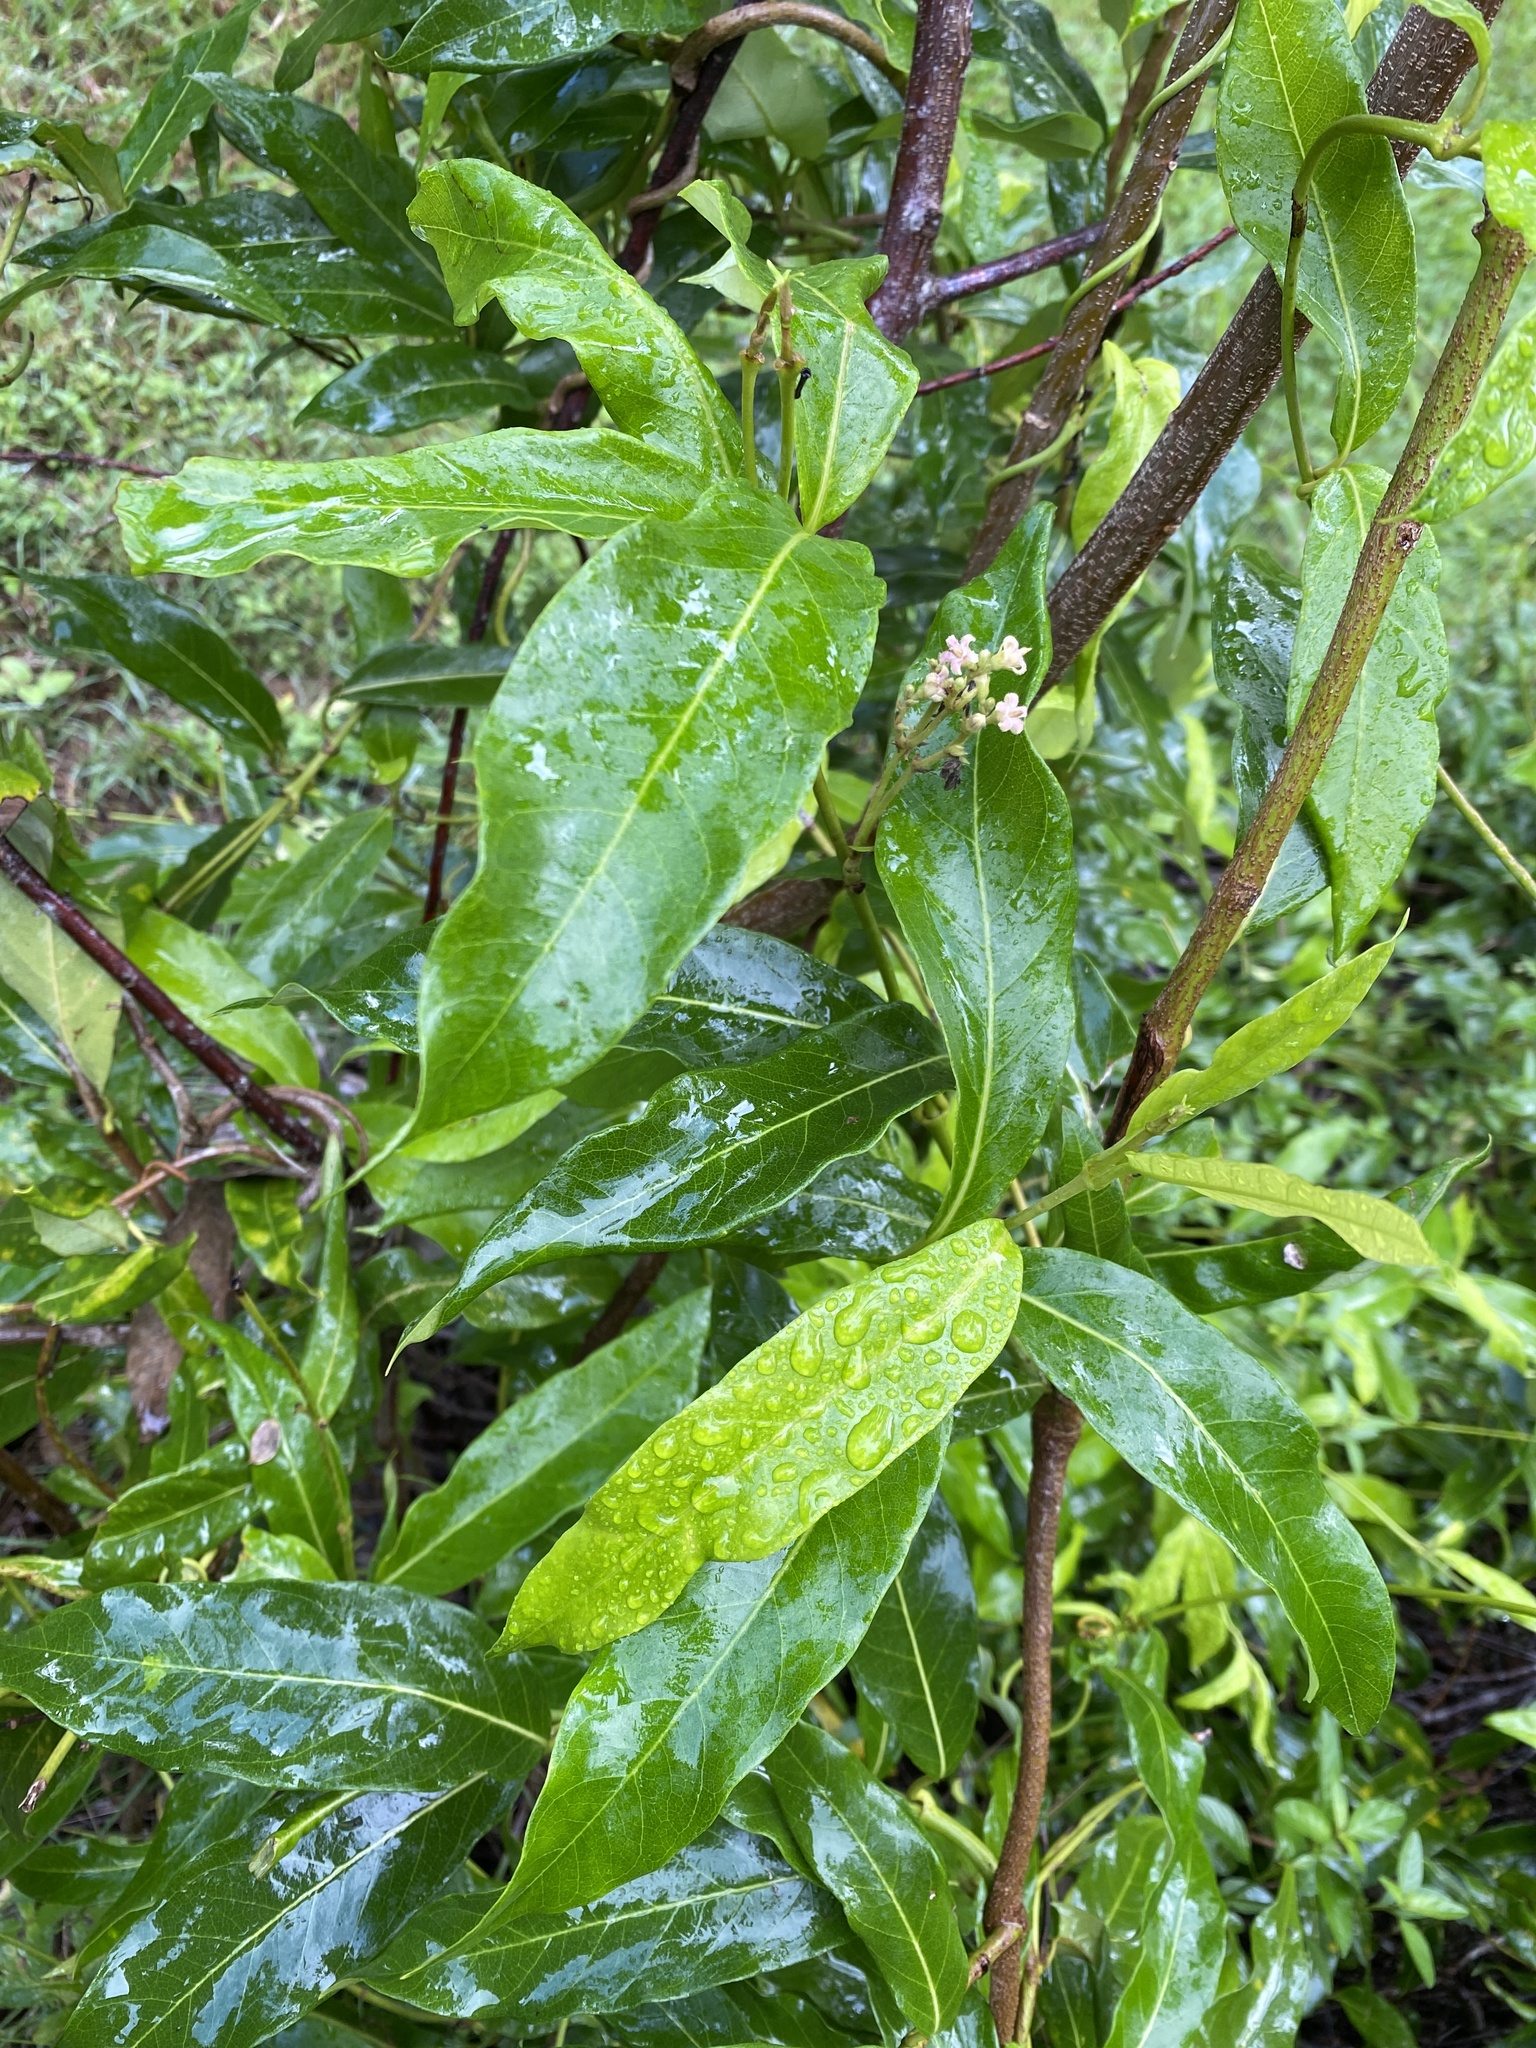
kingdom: Plantae
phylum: Tracheophyta
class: Magnoliopsida
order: Gentianales
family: Apocynaceae
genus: Parsonsia
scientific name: Parsonsia straminea
